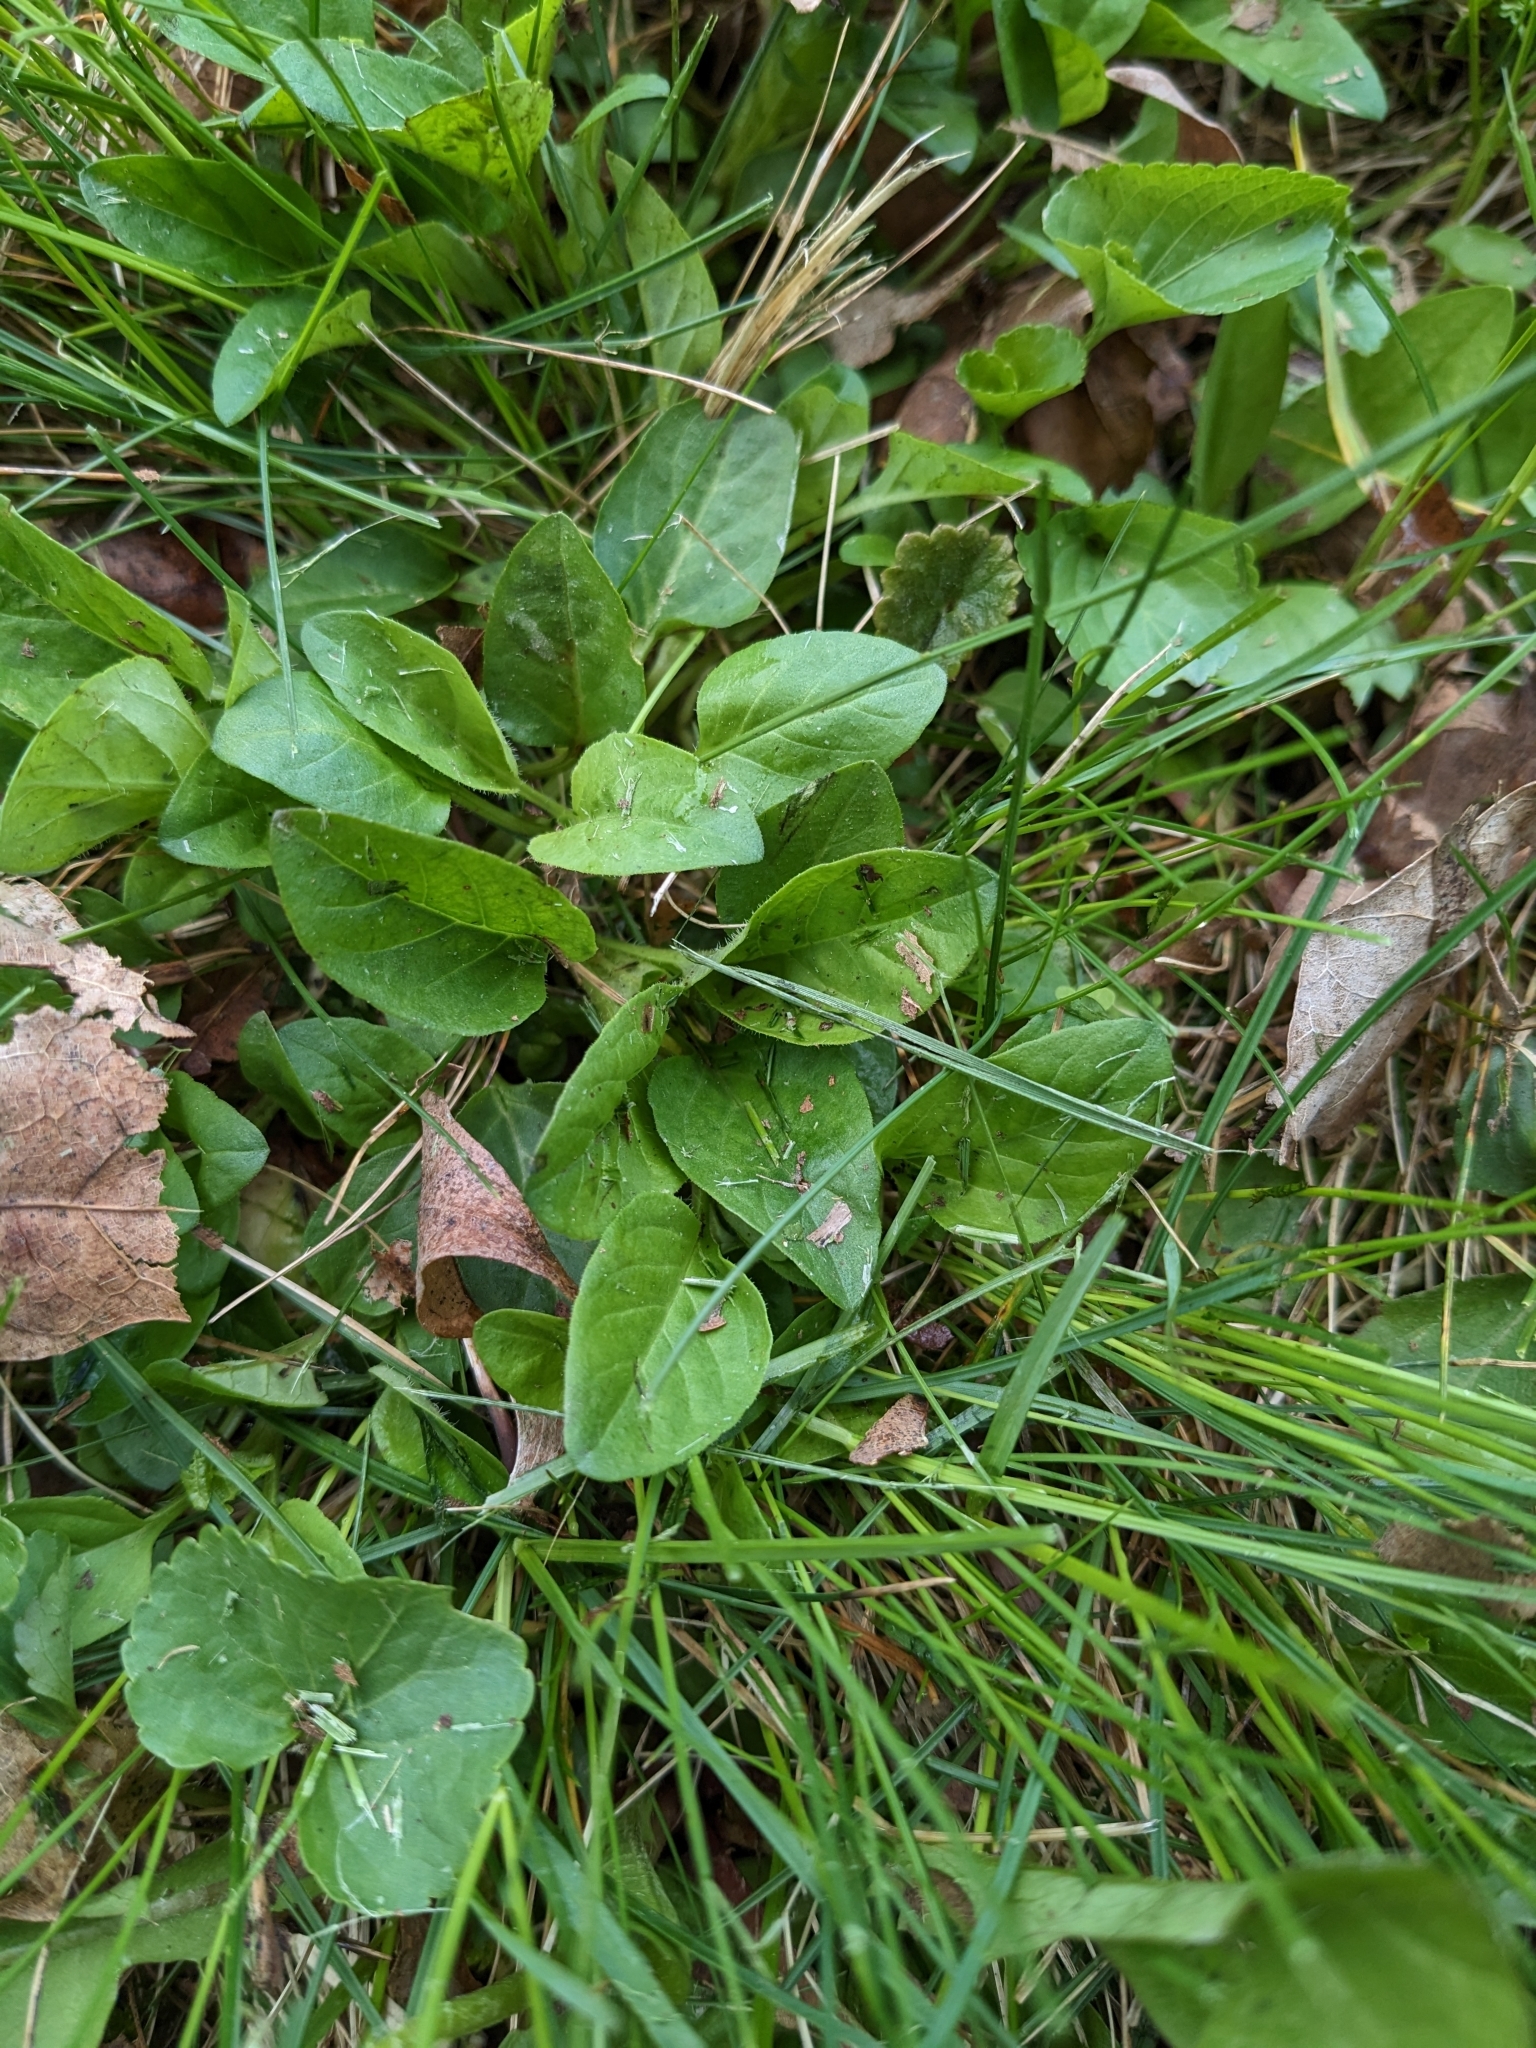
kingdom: Plantae
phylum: Tracheophyta
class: Magnoliopsida
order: Lamiales
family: Lamiaceae
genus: Prunella
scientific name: Prunella vulgaris
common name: Heal-all
